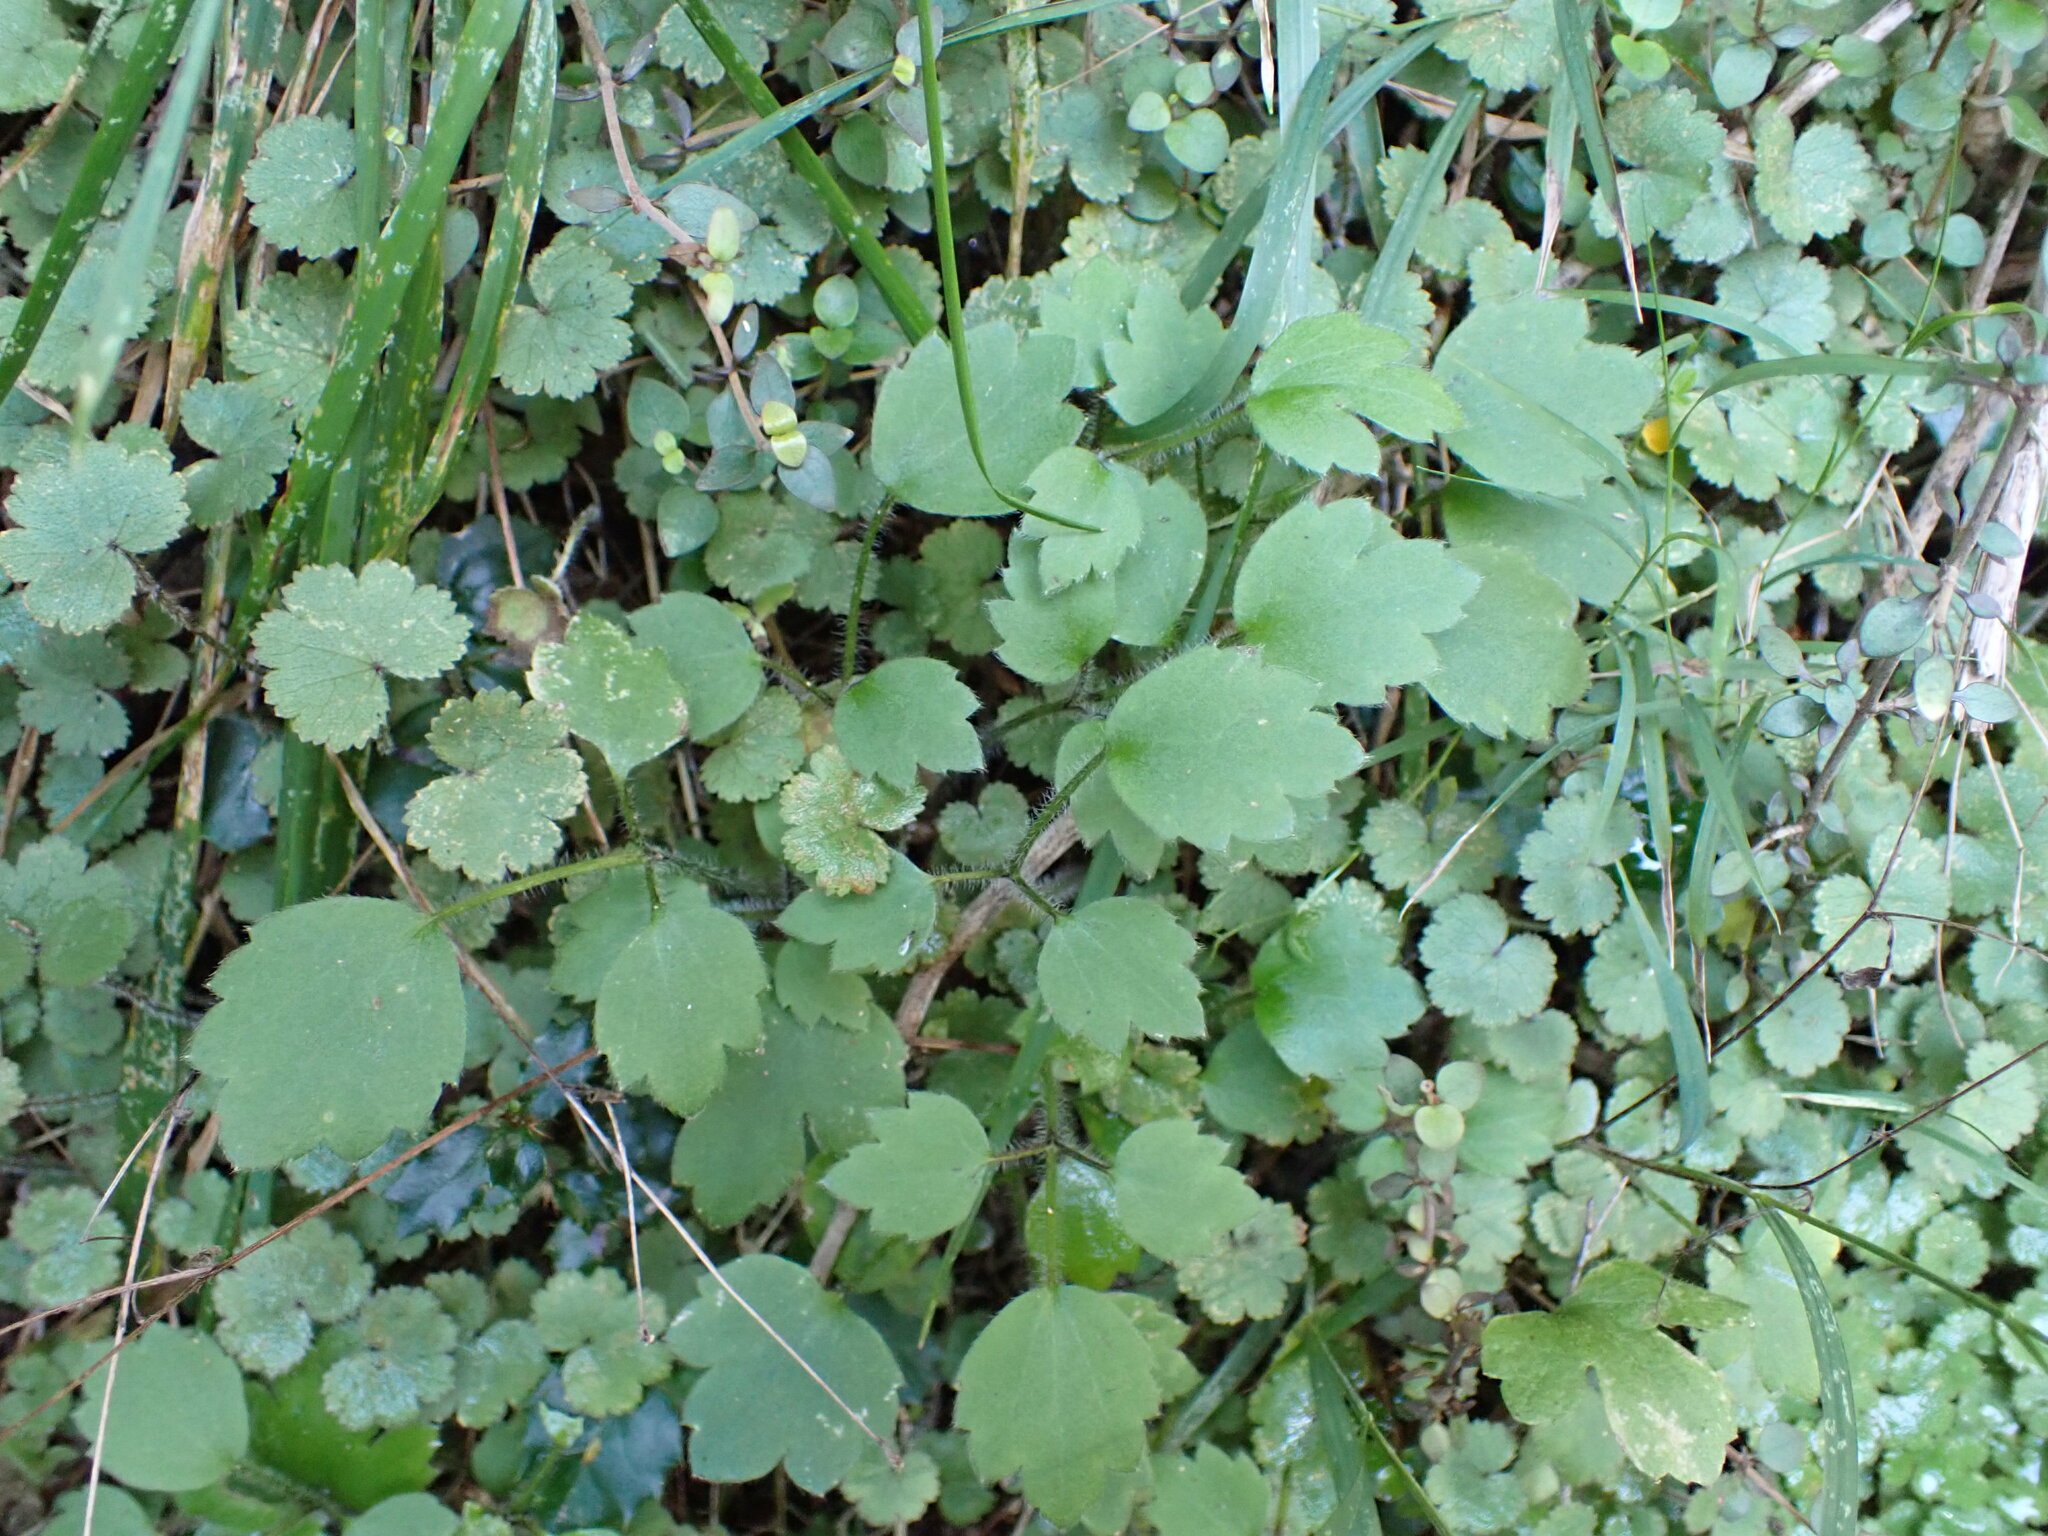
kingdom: Plantae
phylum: Tracheophyta
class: Magnoliopsida
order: Ranunculales
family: Ranunculaceae
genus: Ranunculus
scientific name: Ranunculus reflexus
